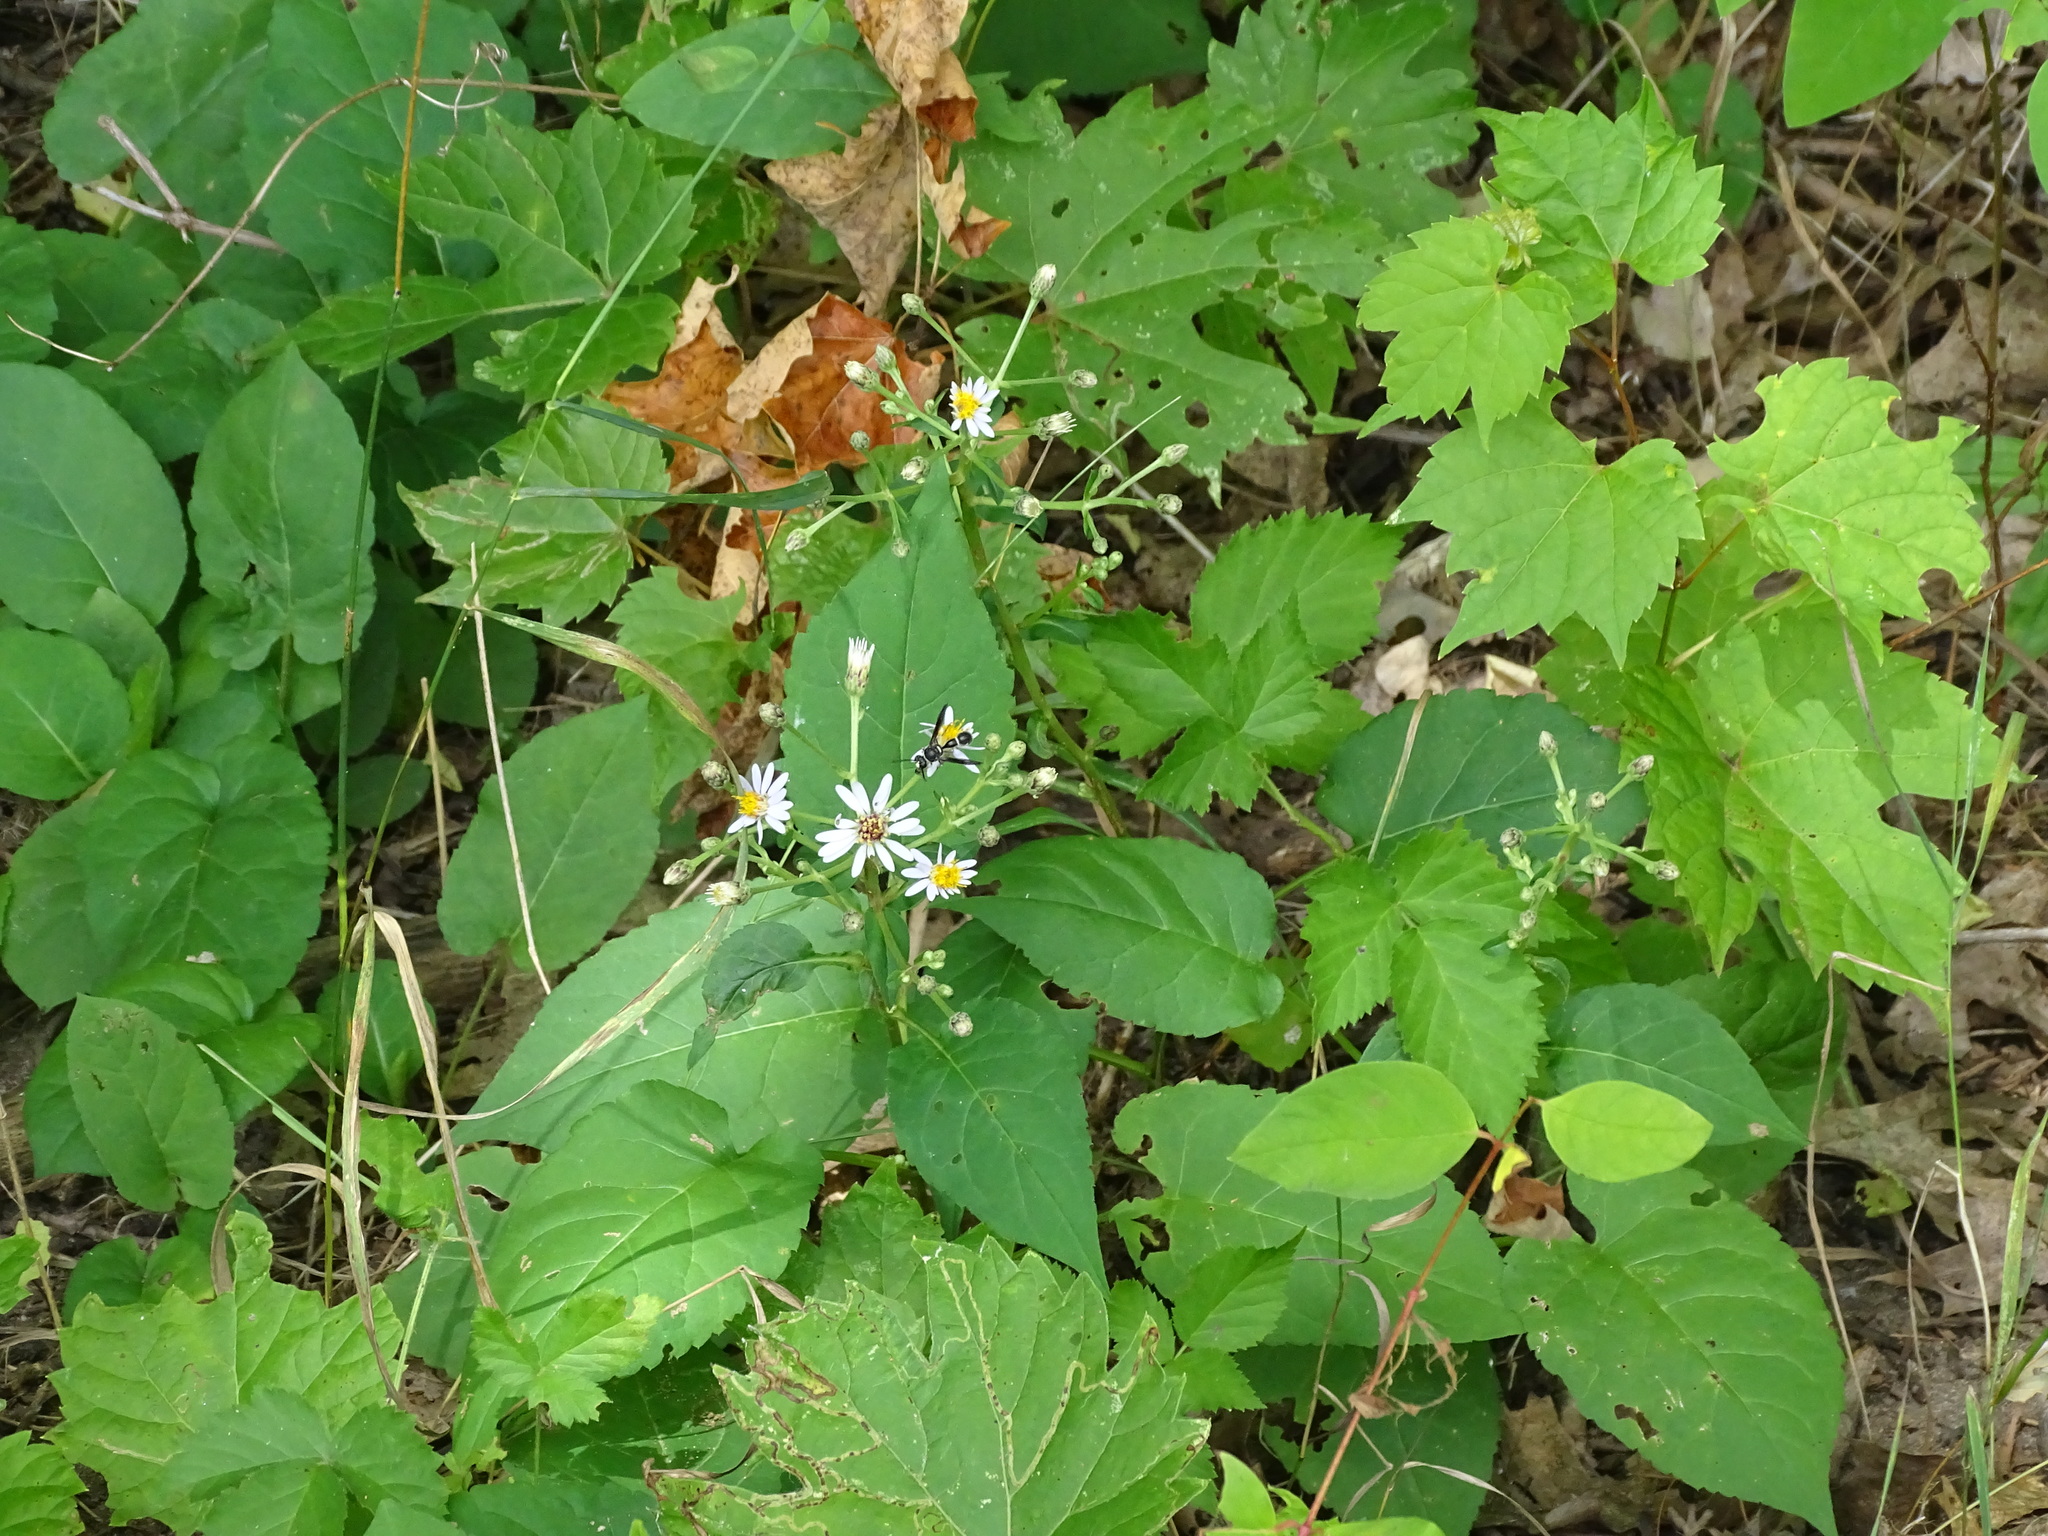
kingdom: Plantae
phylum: Tracheophyta
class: Magnoliopsida
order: Asterales
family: Asteraceae
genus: Eurybia
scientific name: Eurybia macrophylla
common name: Big-leaved aster
